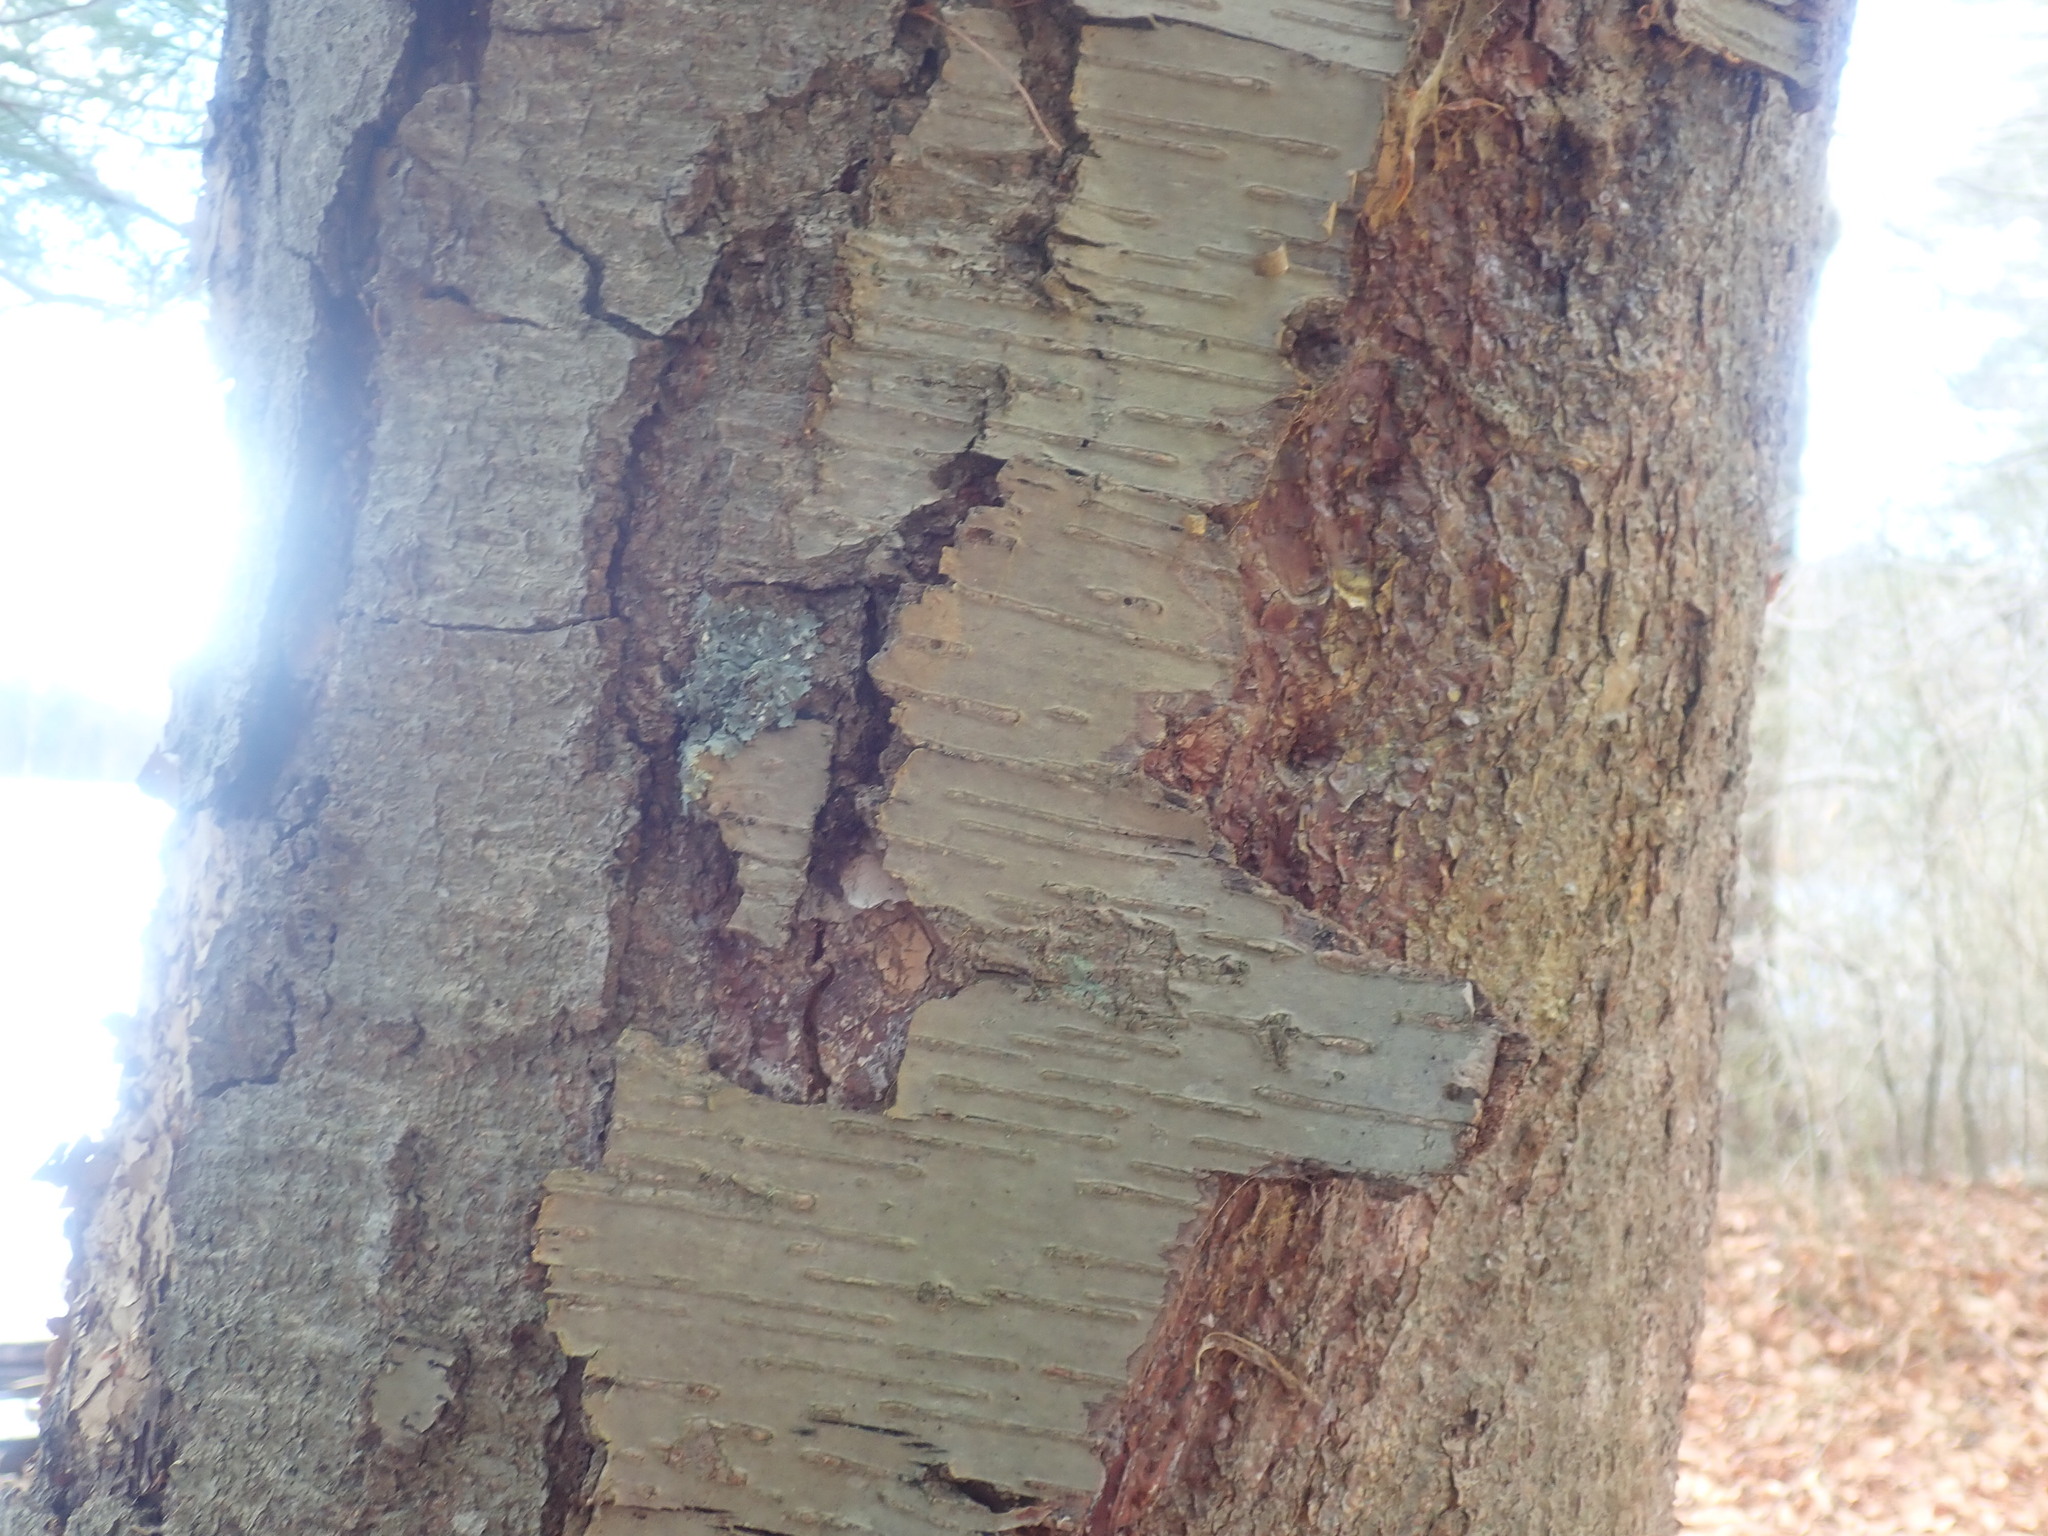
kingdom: Plantae
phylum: Tracheophyta
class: Magnoliopsida
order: Fagales
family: Betulaceae
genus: Betula
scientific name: Betula lenta
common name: Black birch
